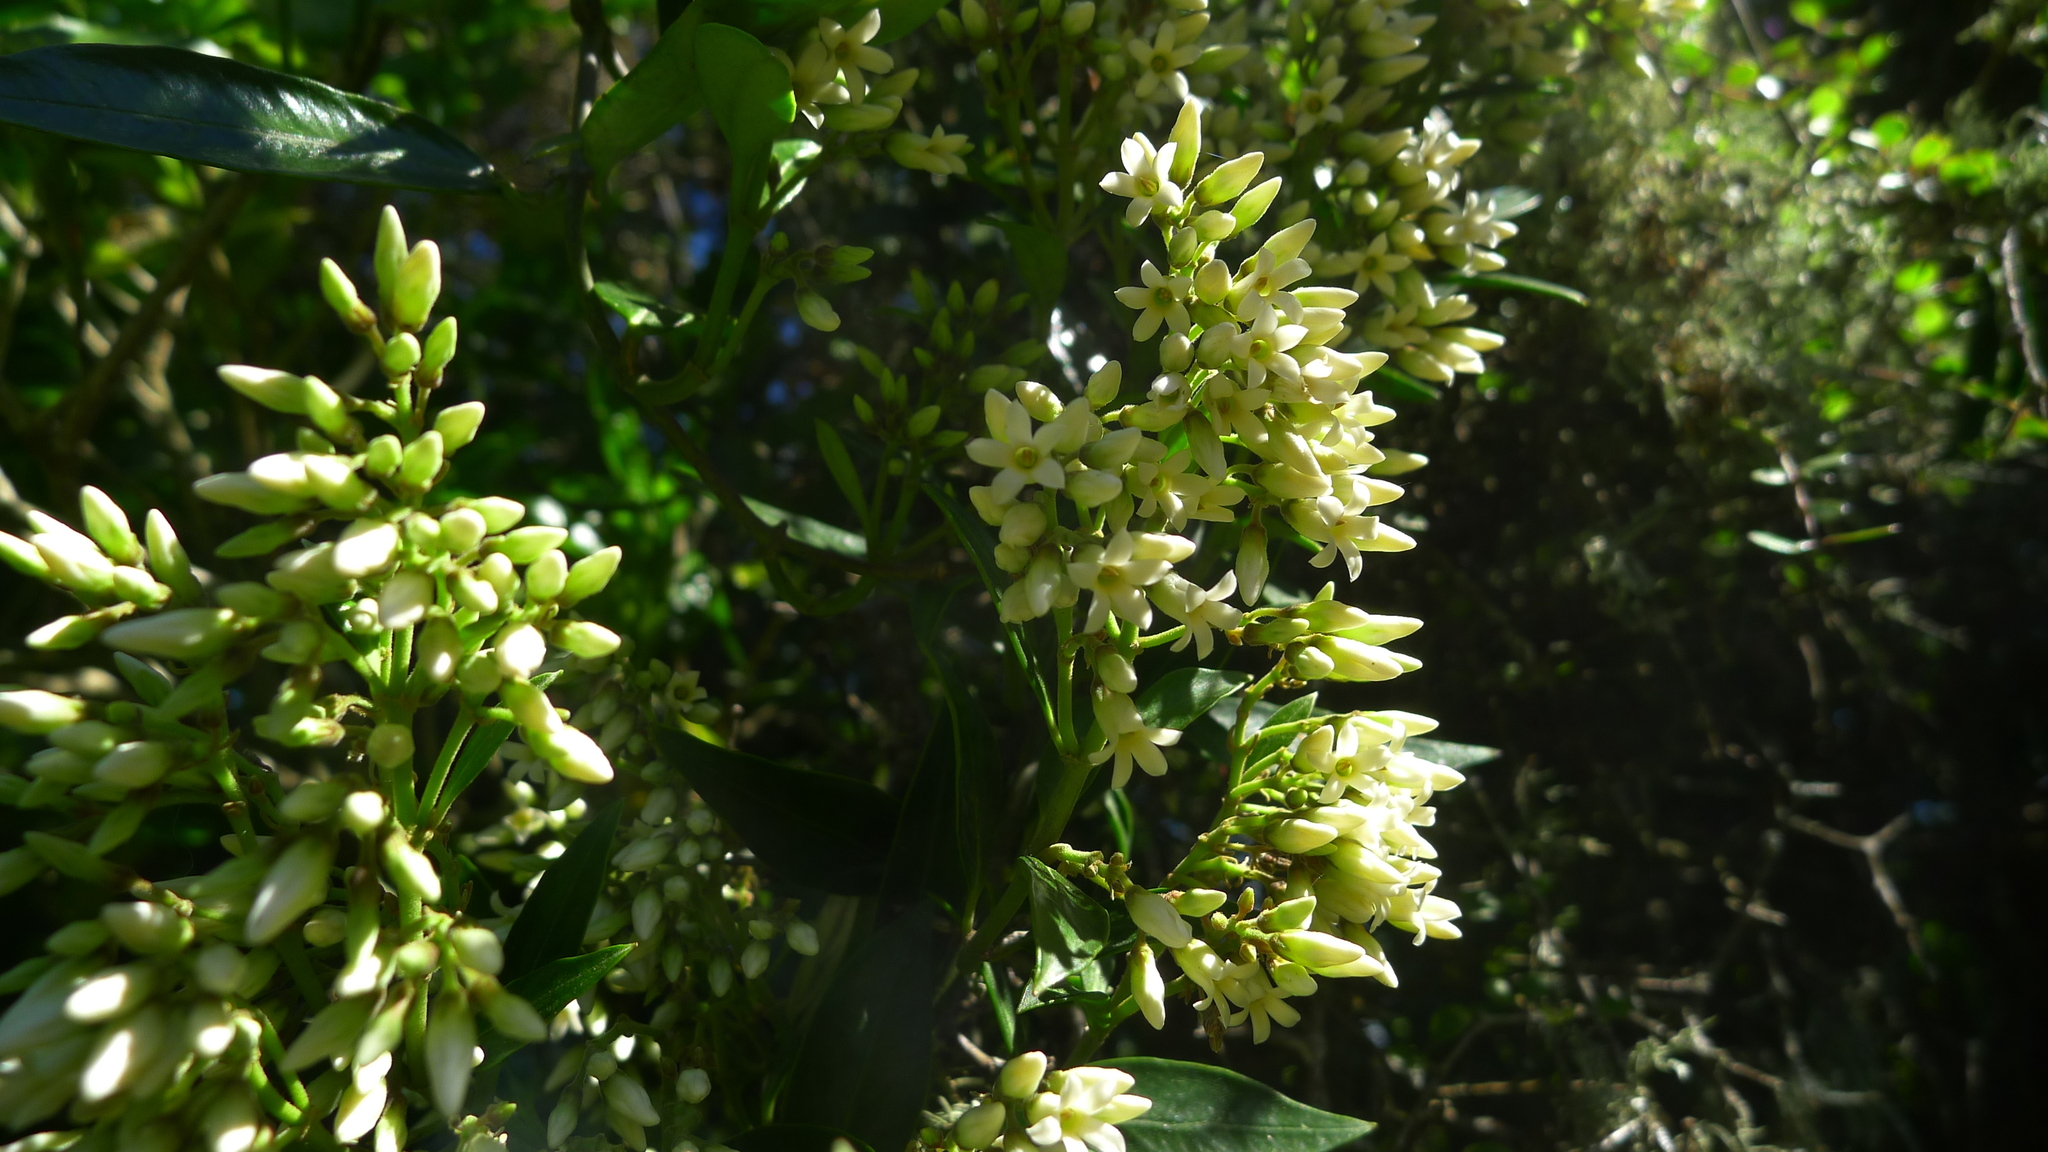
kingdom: Plantae
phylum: Tracheophyta
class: Magnoliopsida
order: Gentianales
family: Apocynaceae
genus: Parsonsia
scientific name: Parsonsia heterophylla
